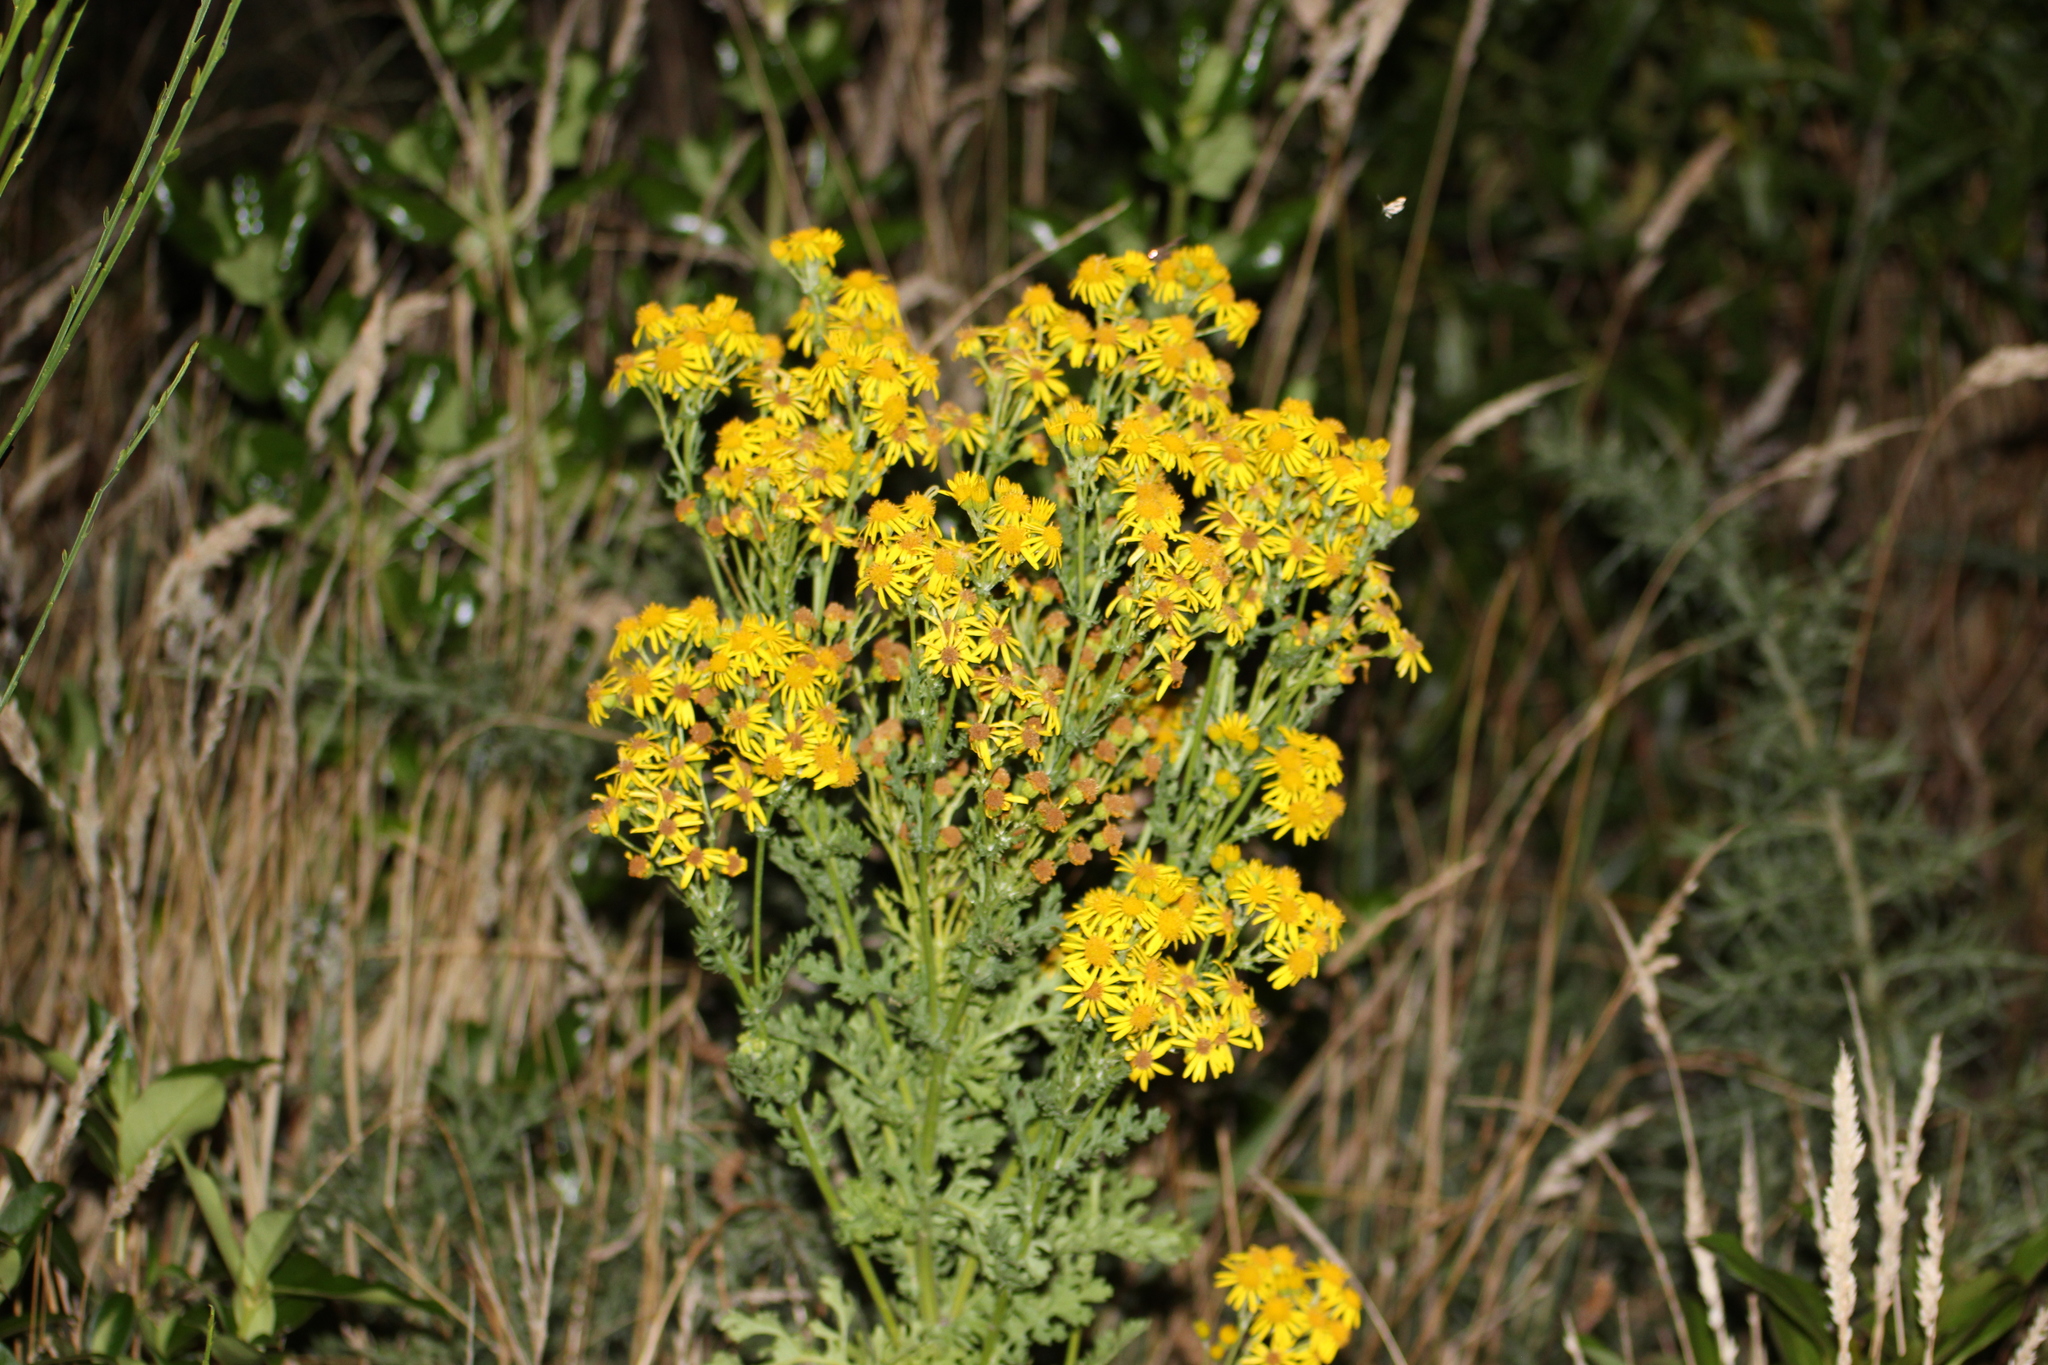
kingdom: Plantae
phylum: Tracheophyta
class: Magnoliopsida
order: Asterales
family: Asteraceae
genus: Jacobaea
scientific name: Jacobaea vulgaris
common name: Stinking willie
